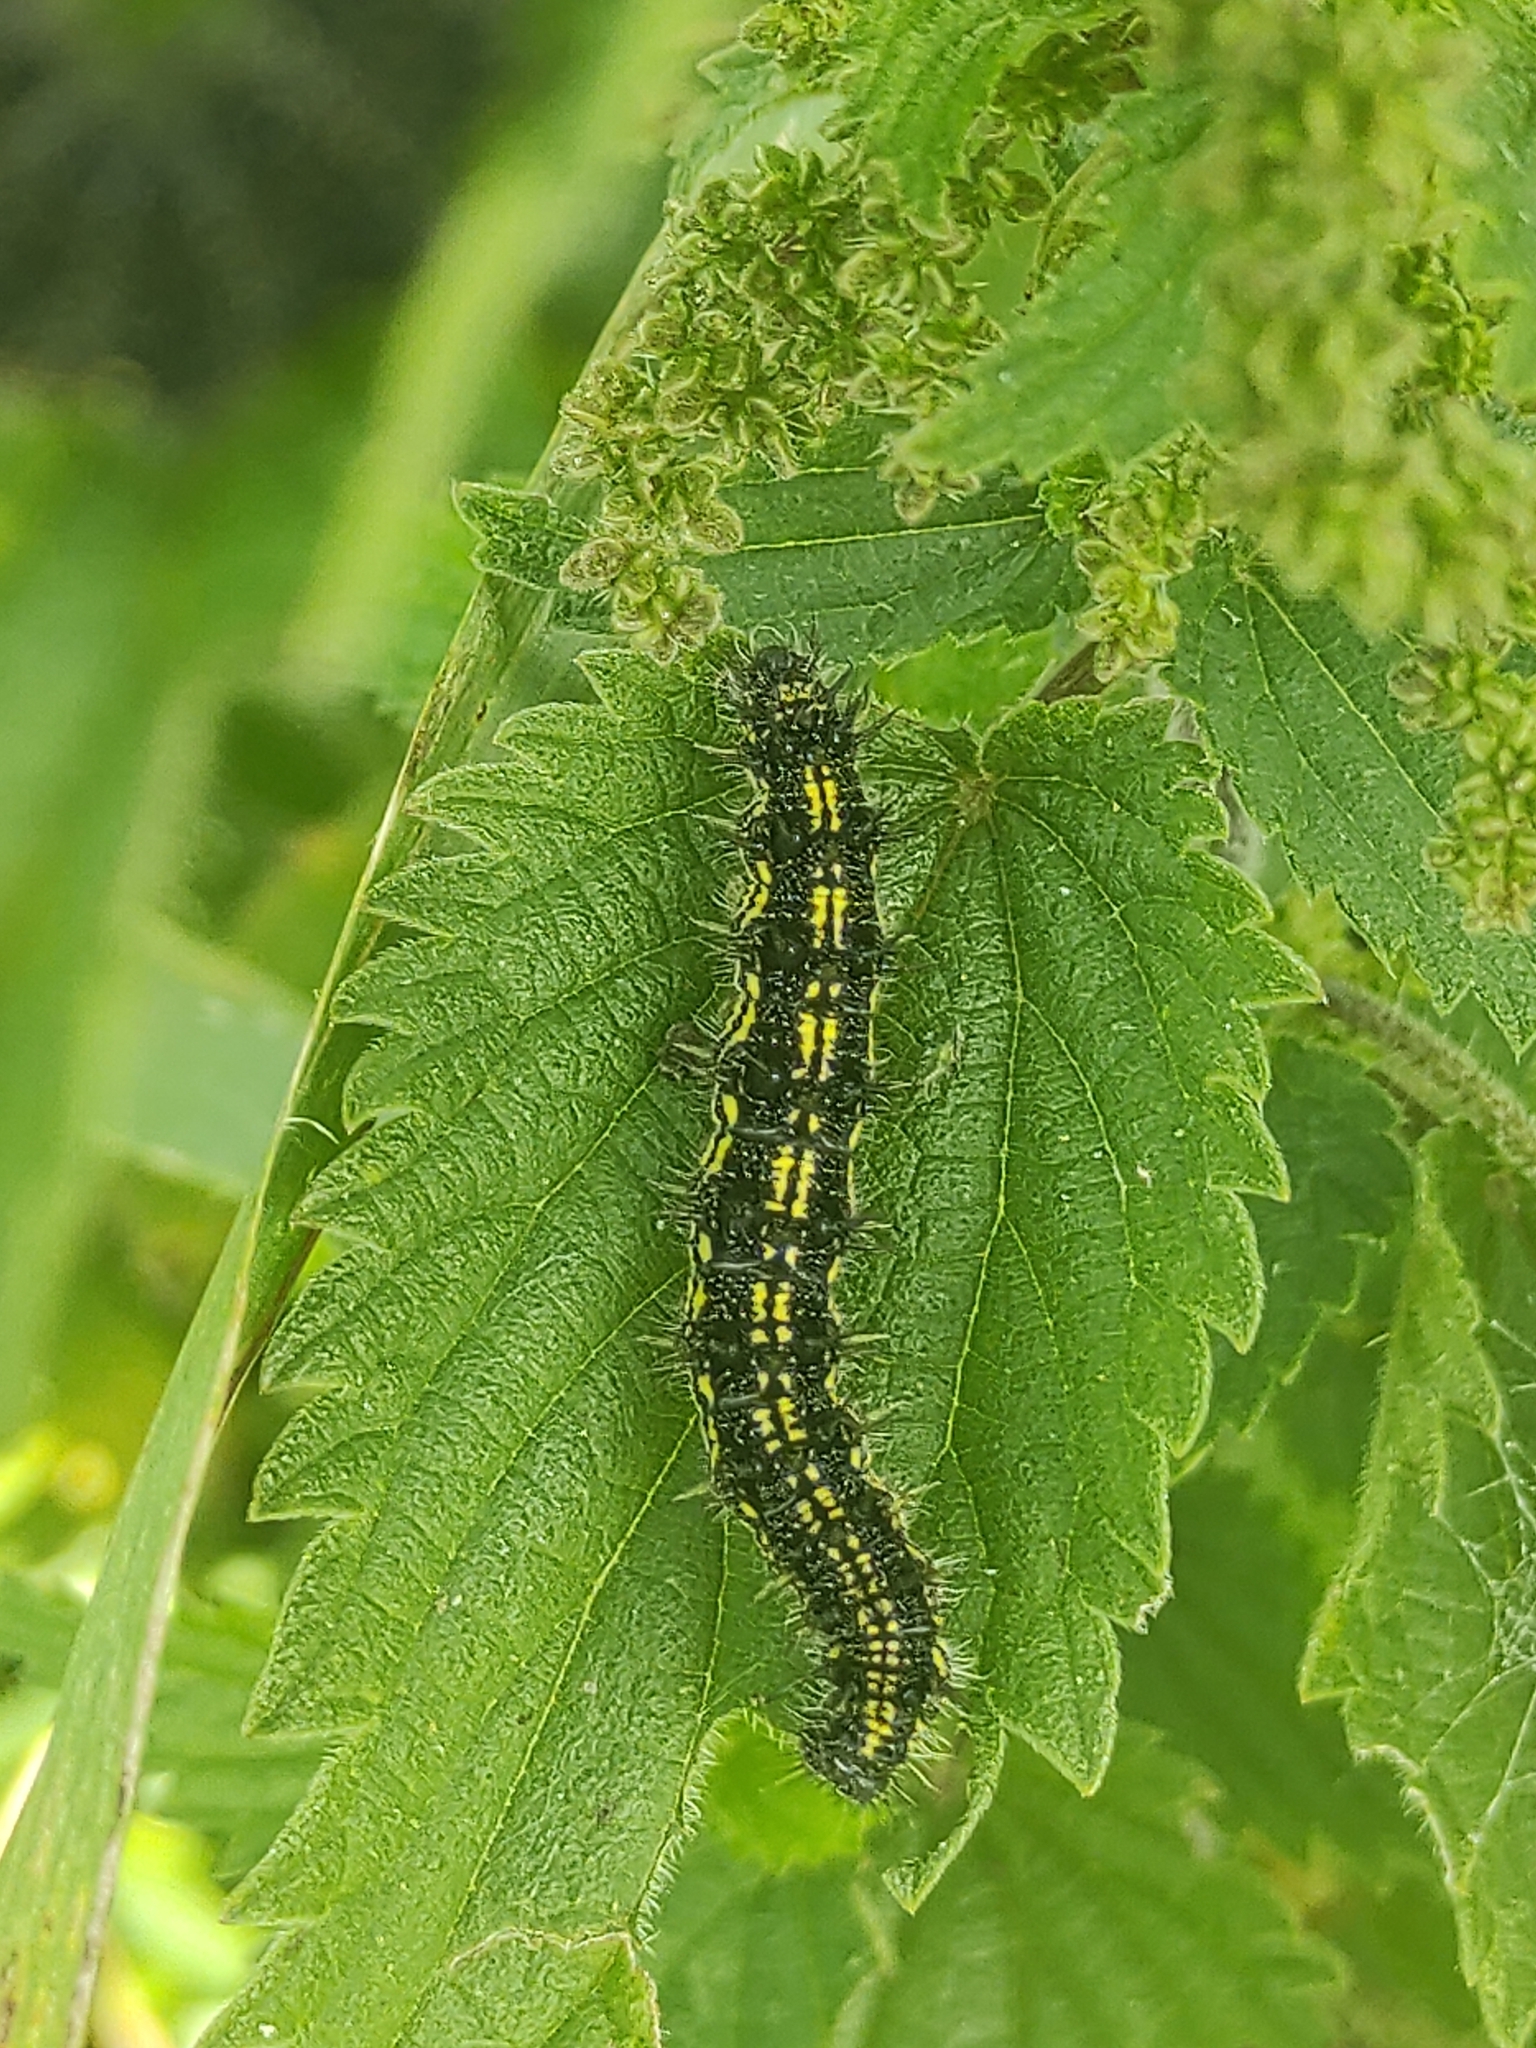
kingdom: Animalia
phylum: Arthropoda
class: Insecta
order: Lepidoptera
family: Nymphalidae
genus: Aglais
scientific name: Aglais urticae
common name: Small tortoiseshell
